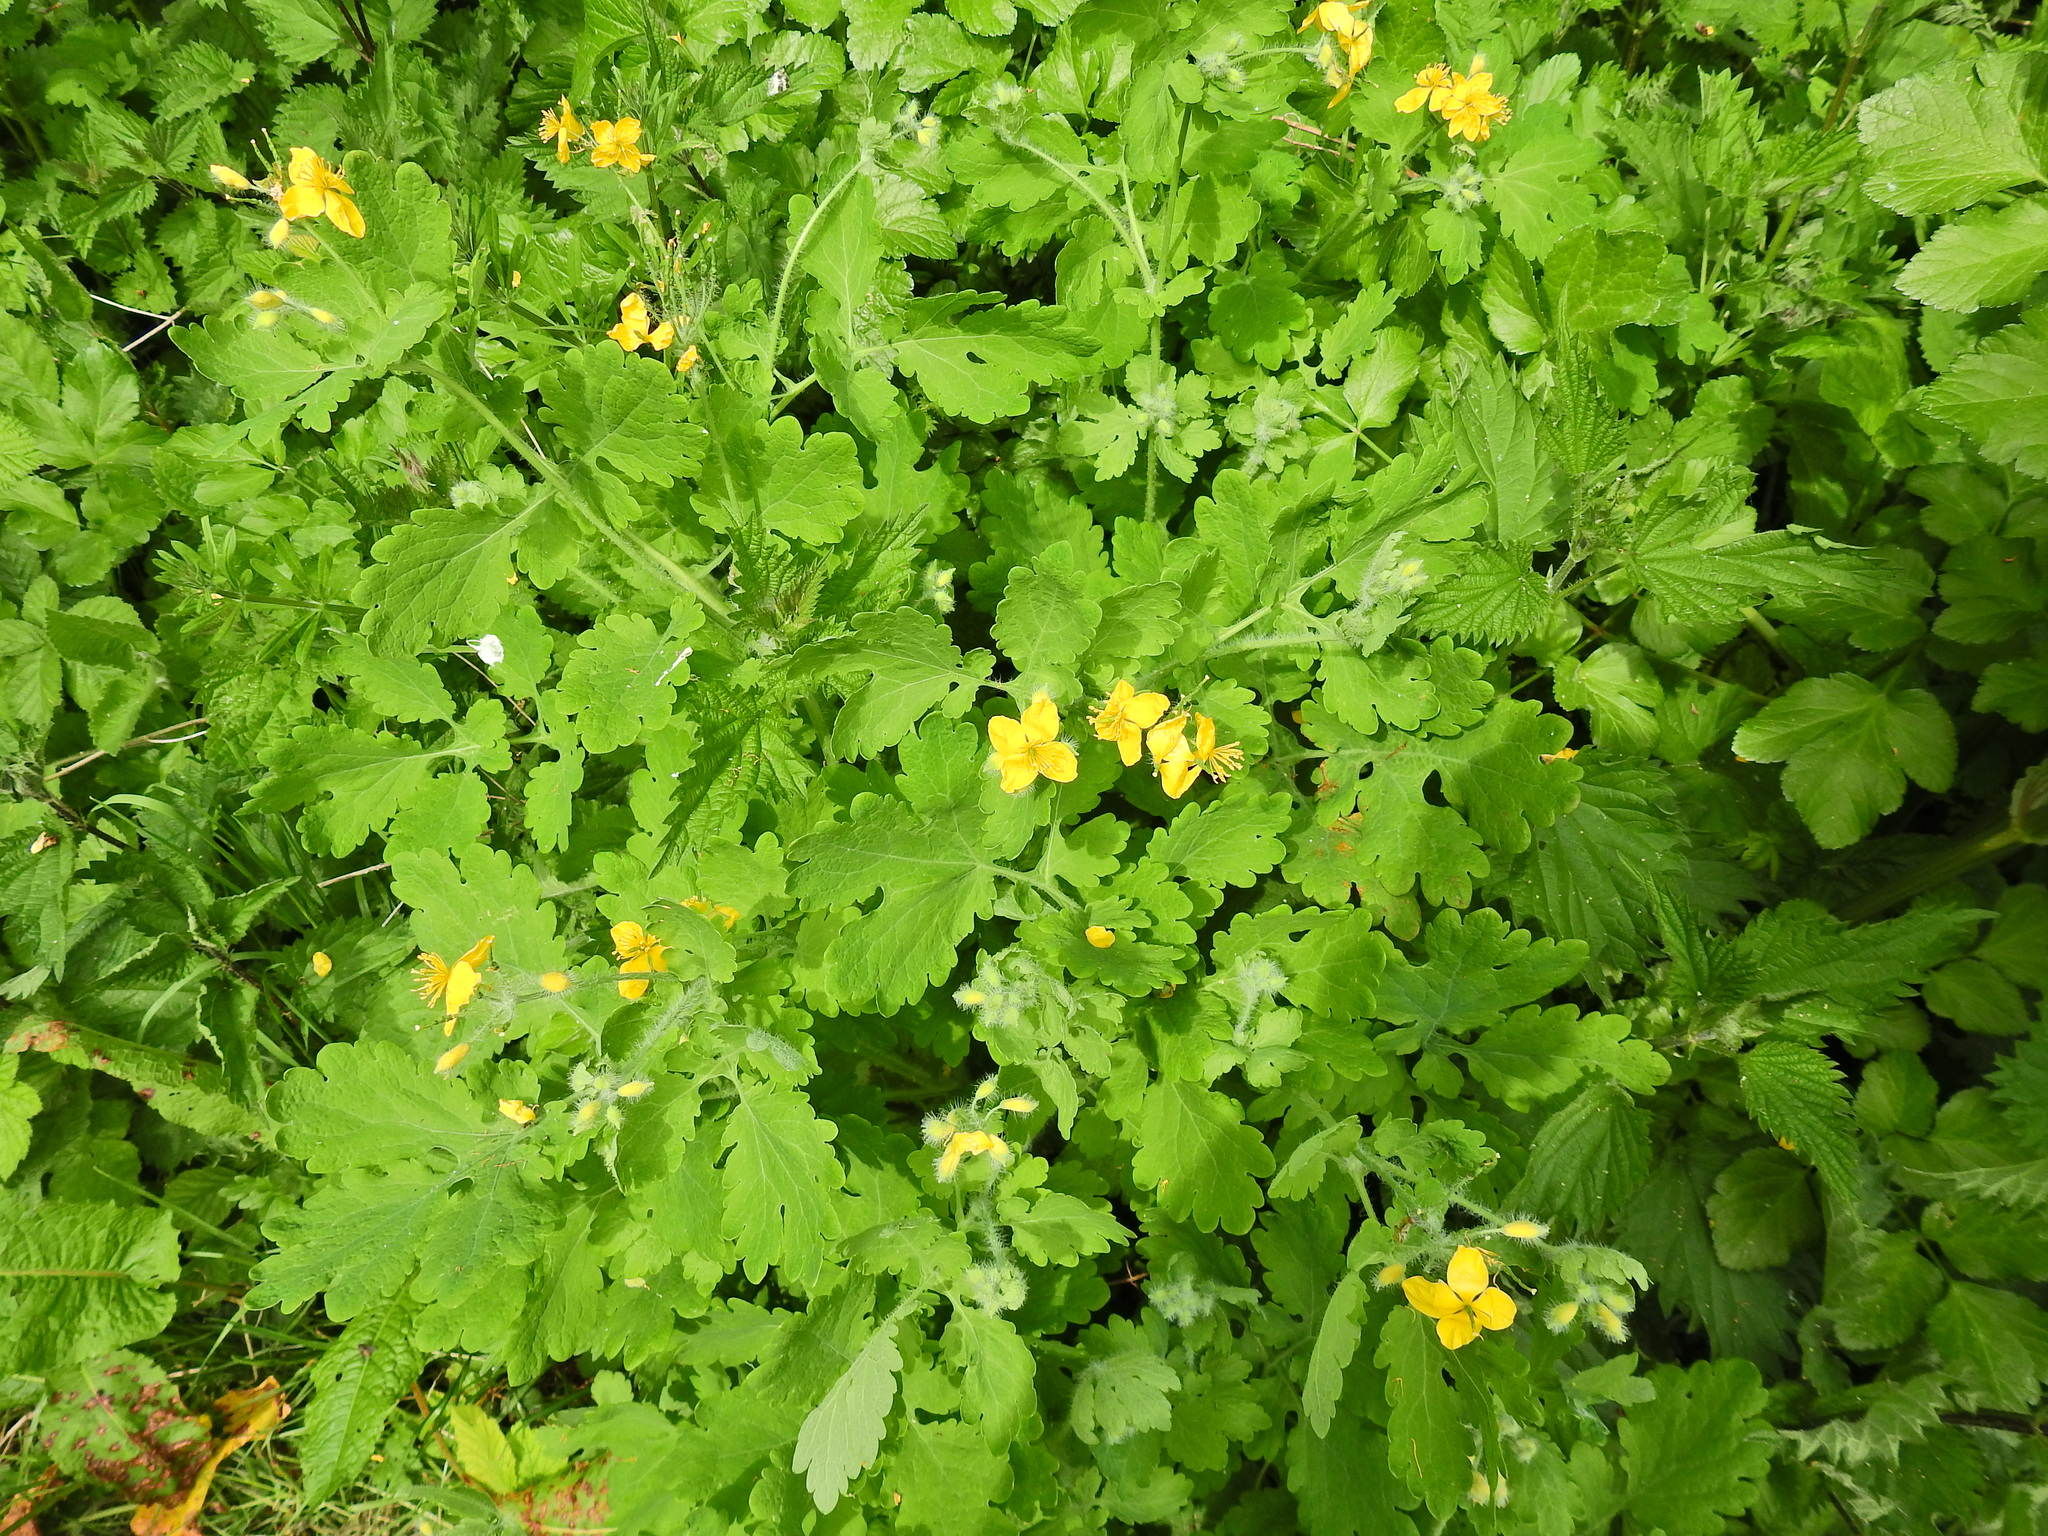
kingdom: Plantae
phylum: Tracheophyta
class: Magnoliopsida
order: Ranunculales
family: Papaveraceae
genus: Chelidonium
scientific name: Chelidonium majus
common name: Greater celandine
